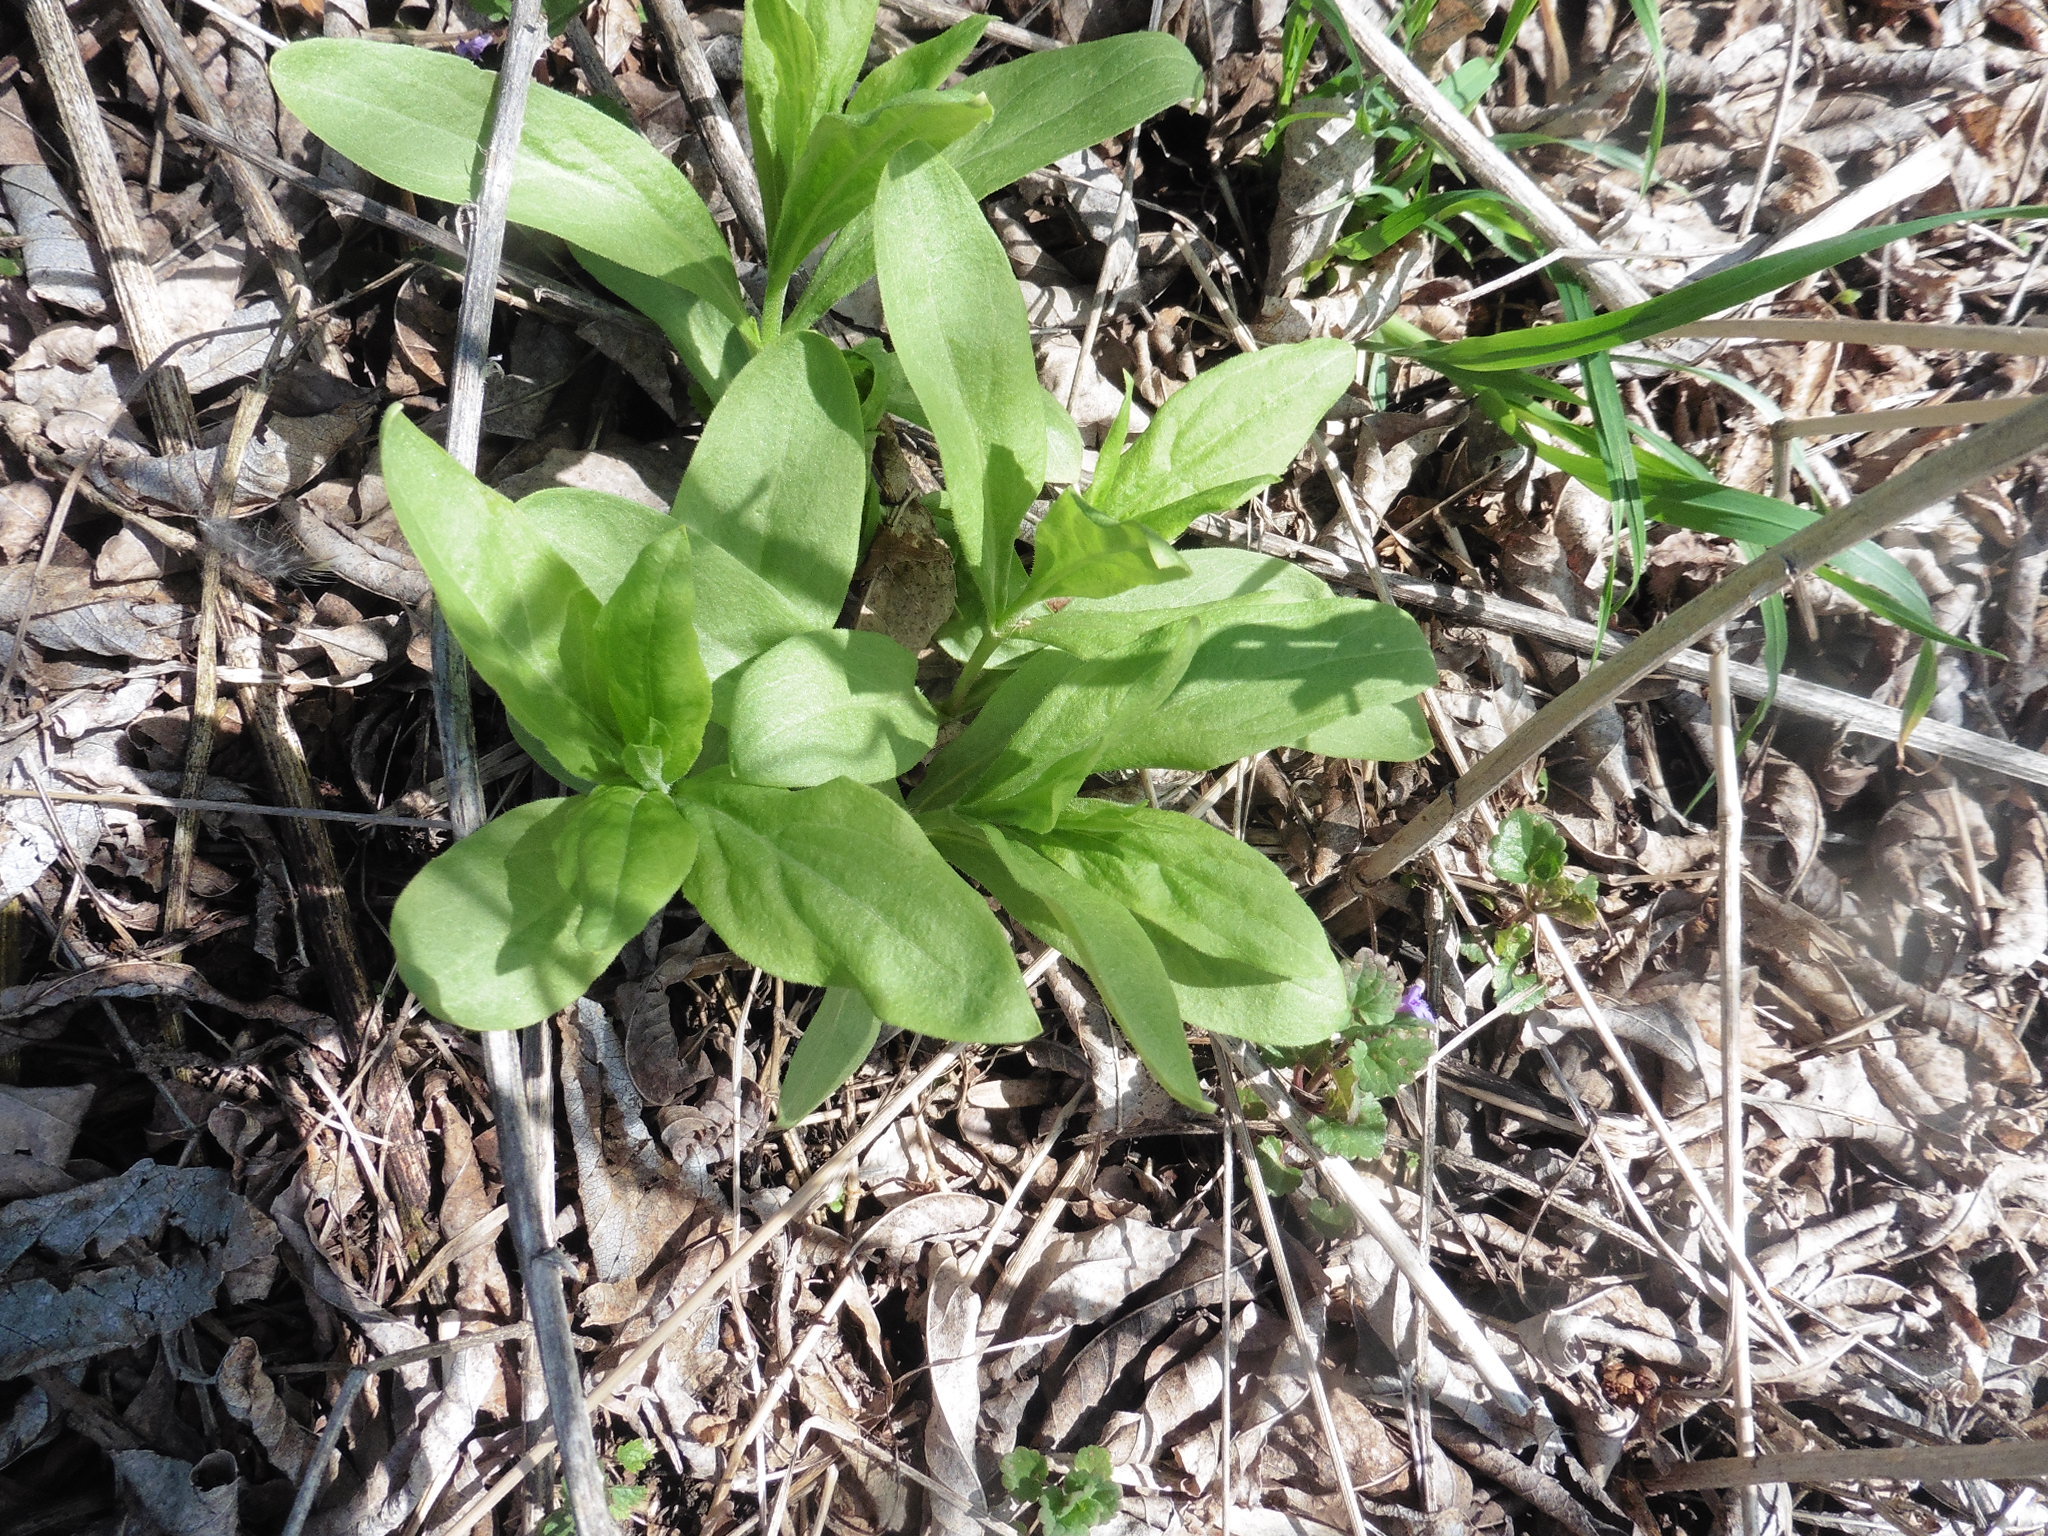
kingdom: Plantae
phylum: Tracheophyta
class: Magnoliopsida
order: Caryophyllales
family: Caryophyllaceae
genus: Saponaria
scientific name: Saponaria officinalis
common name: Soapwort
